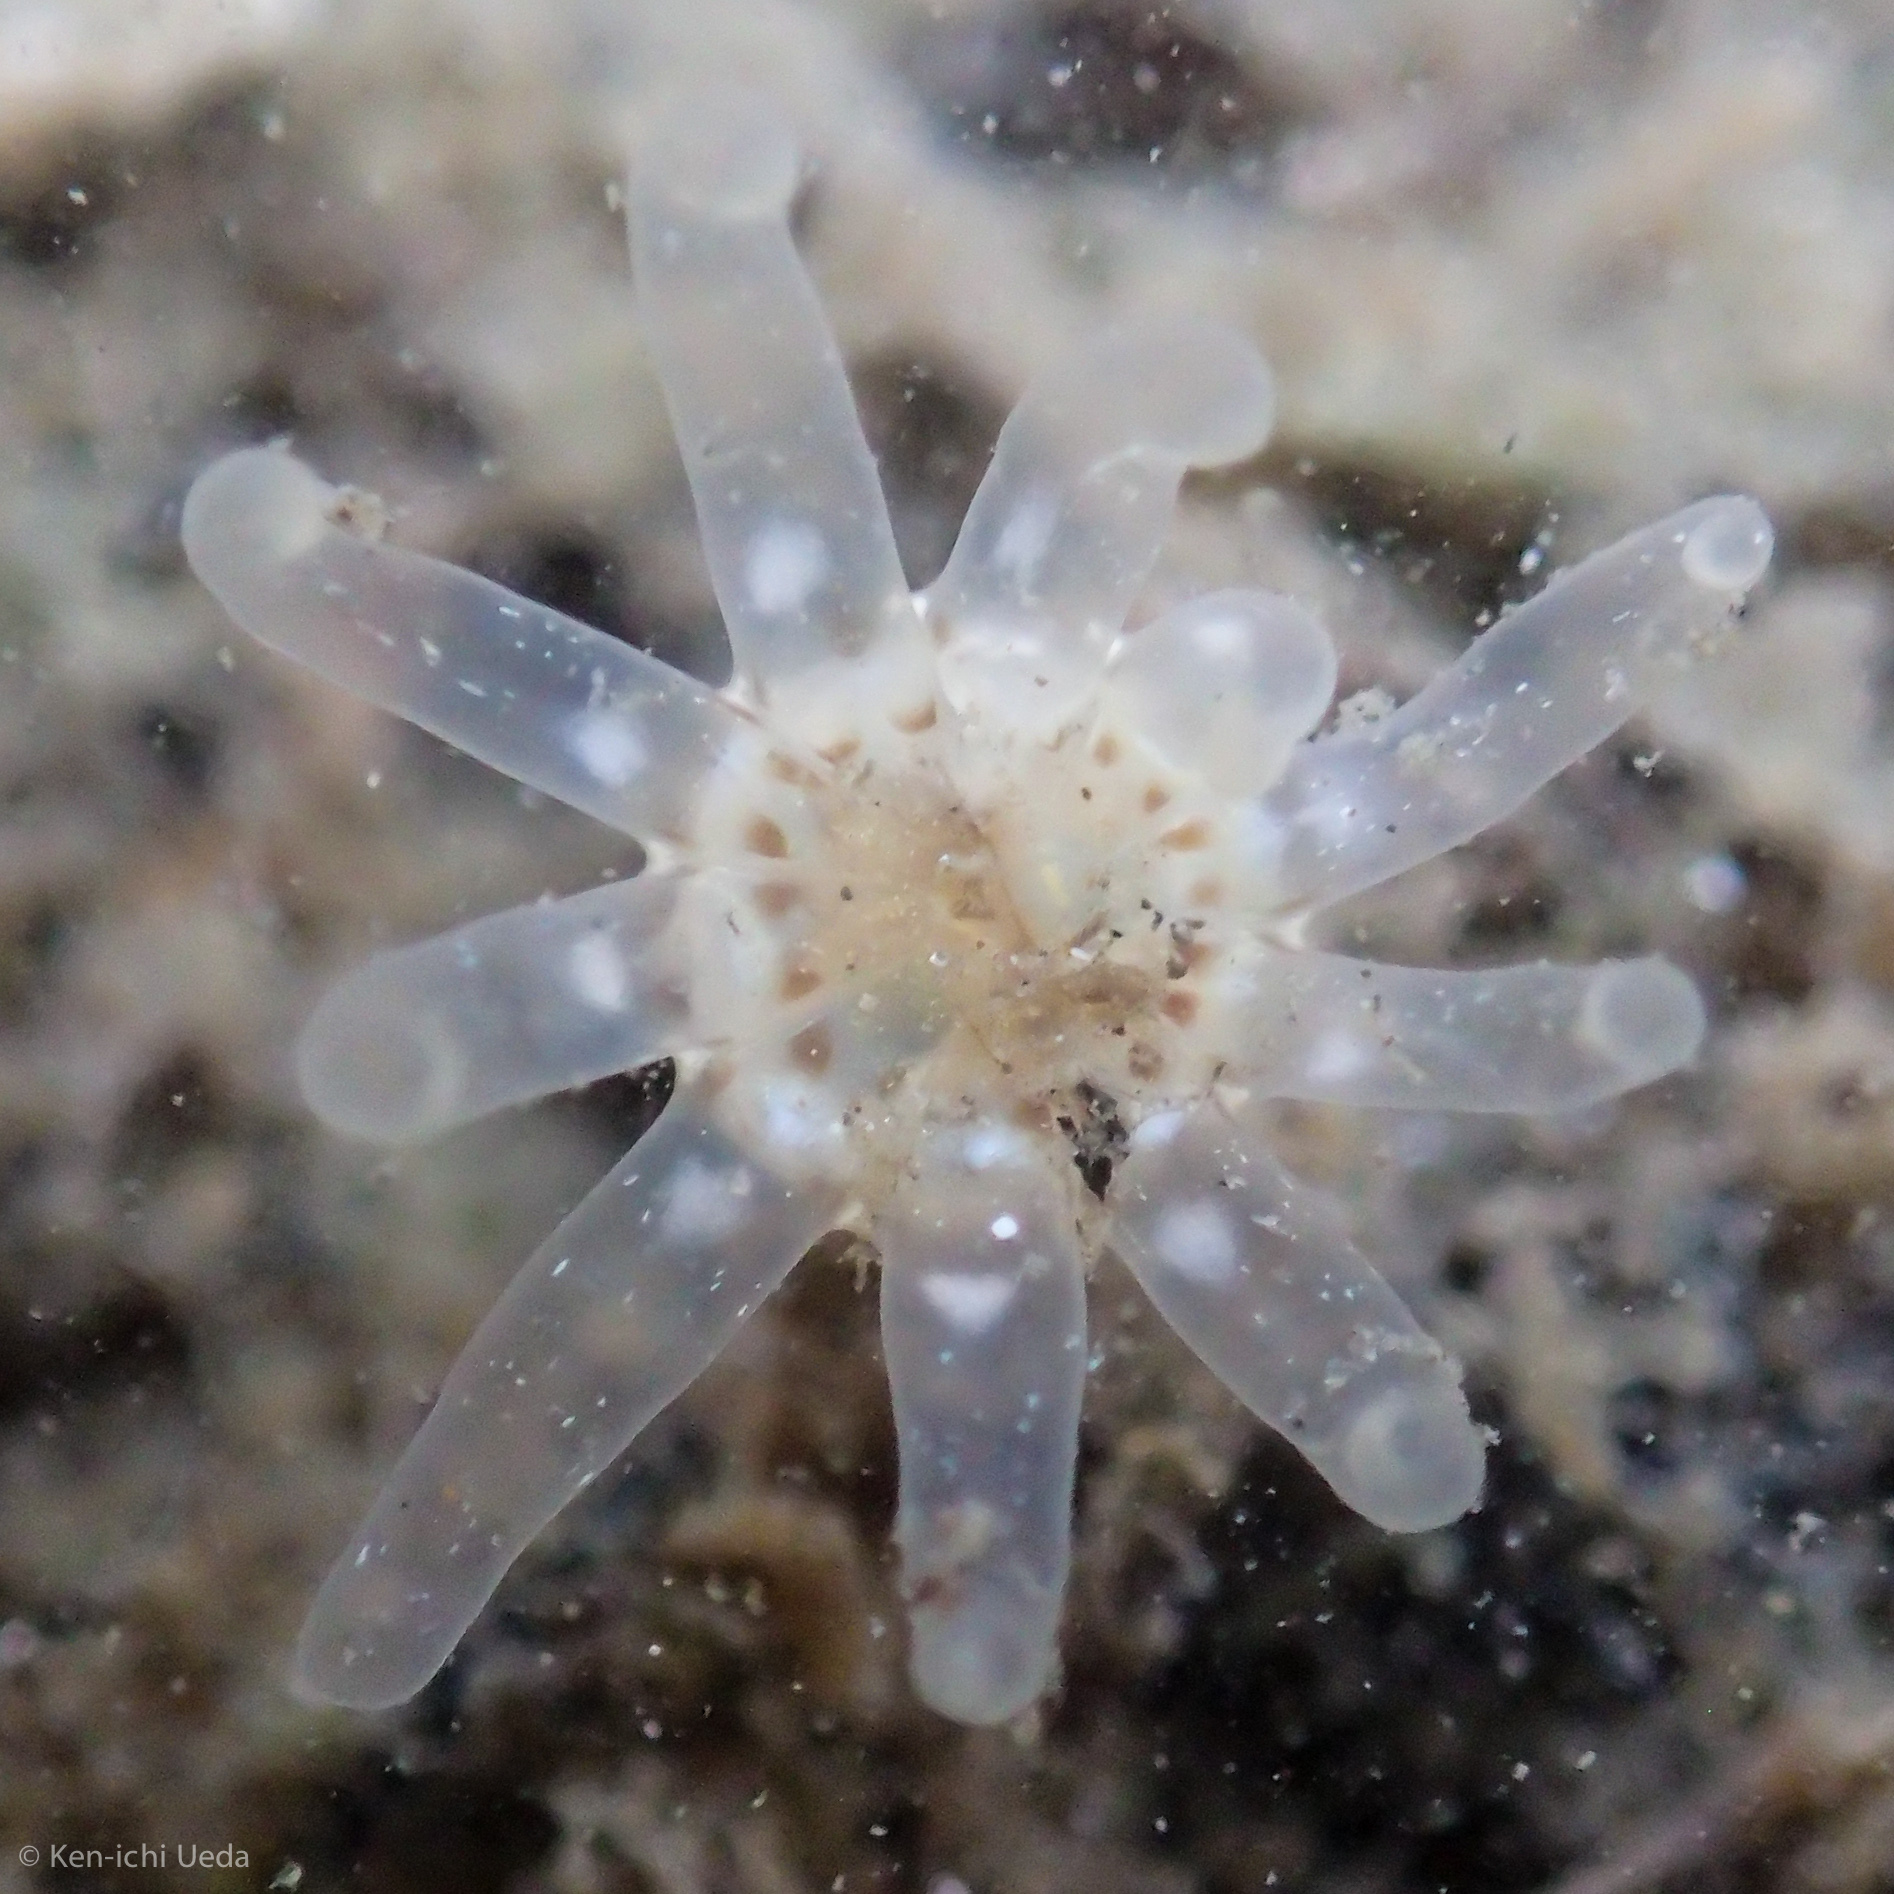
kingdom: Animalia
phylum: Cnidaria
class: Anthozoa
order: Actiniaria
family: Halcampidae
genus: Halcampa
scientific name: Halcampa decemtentaculata
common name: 10-tentacle burrowing anemone
